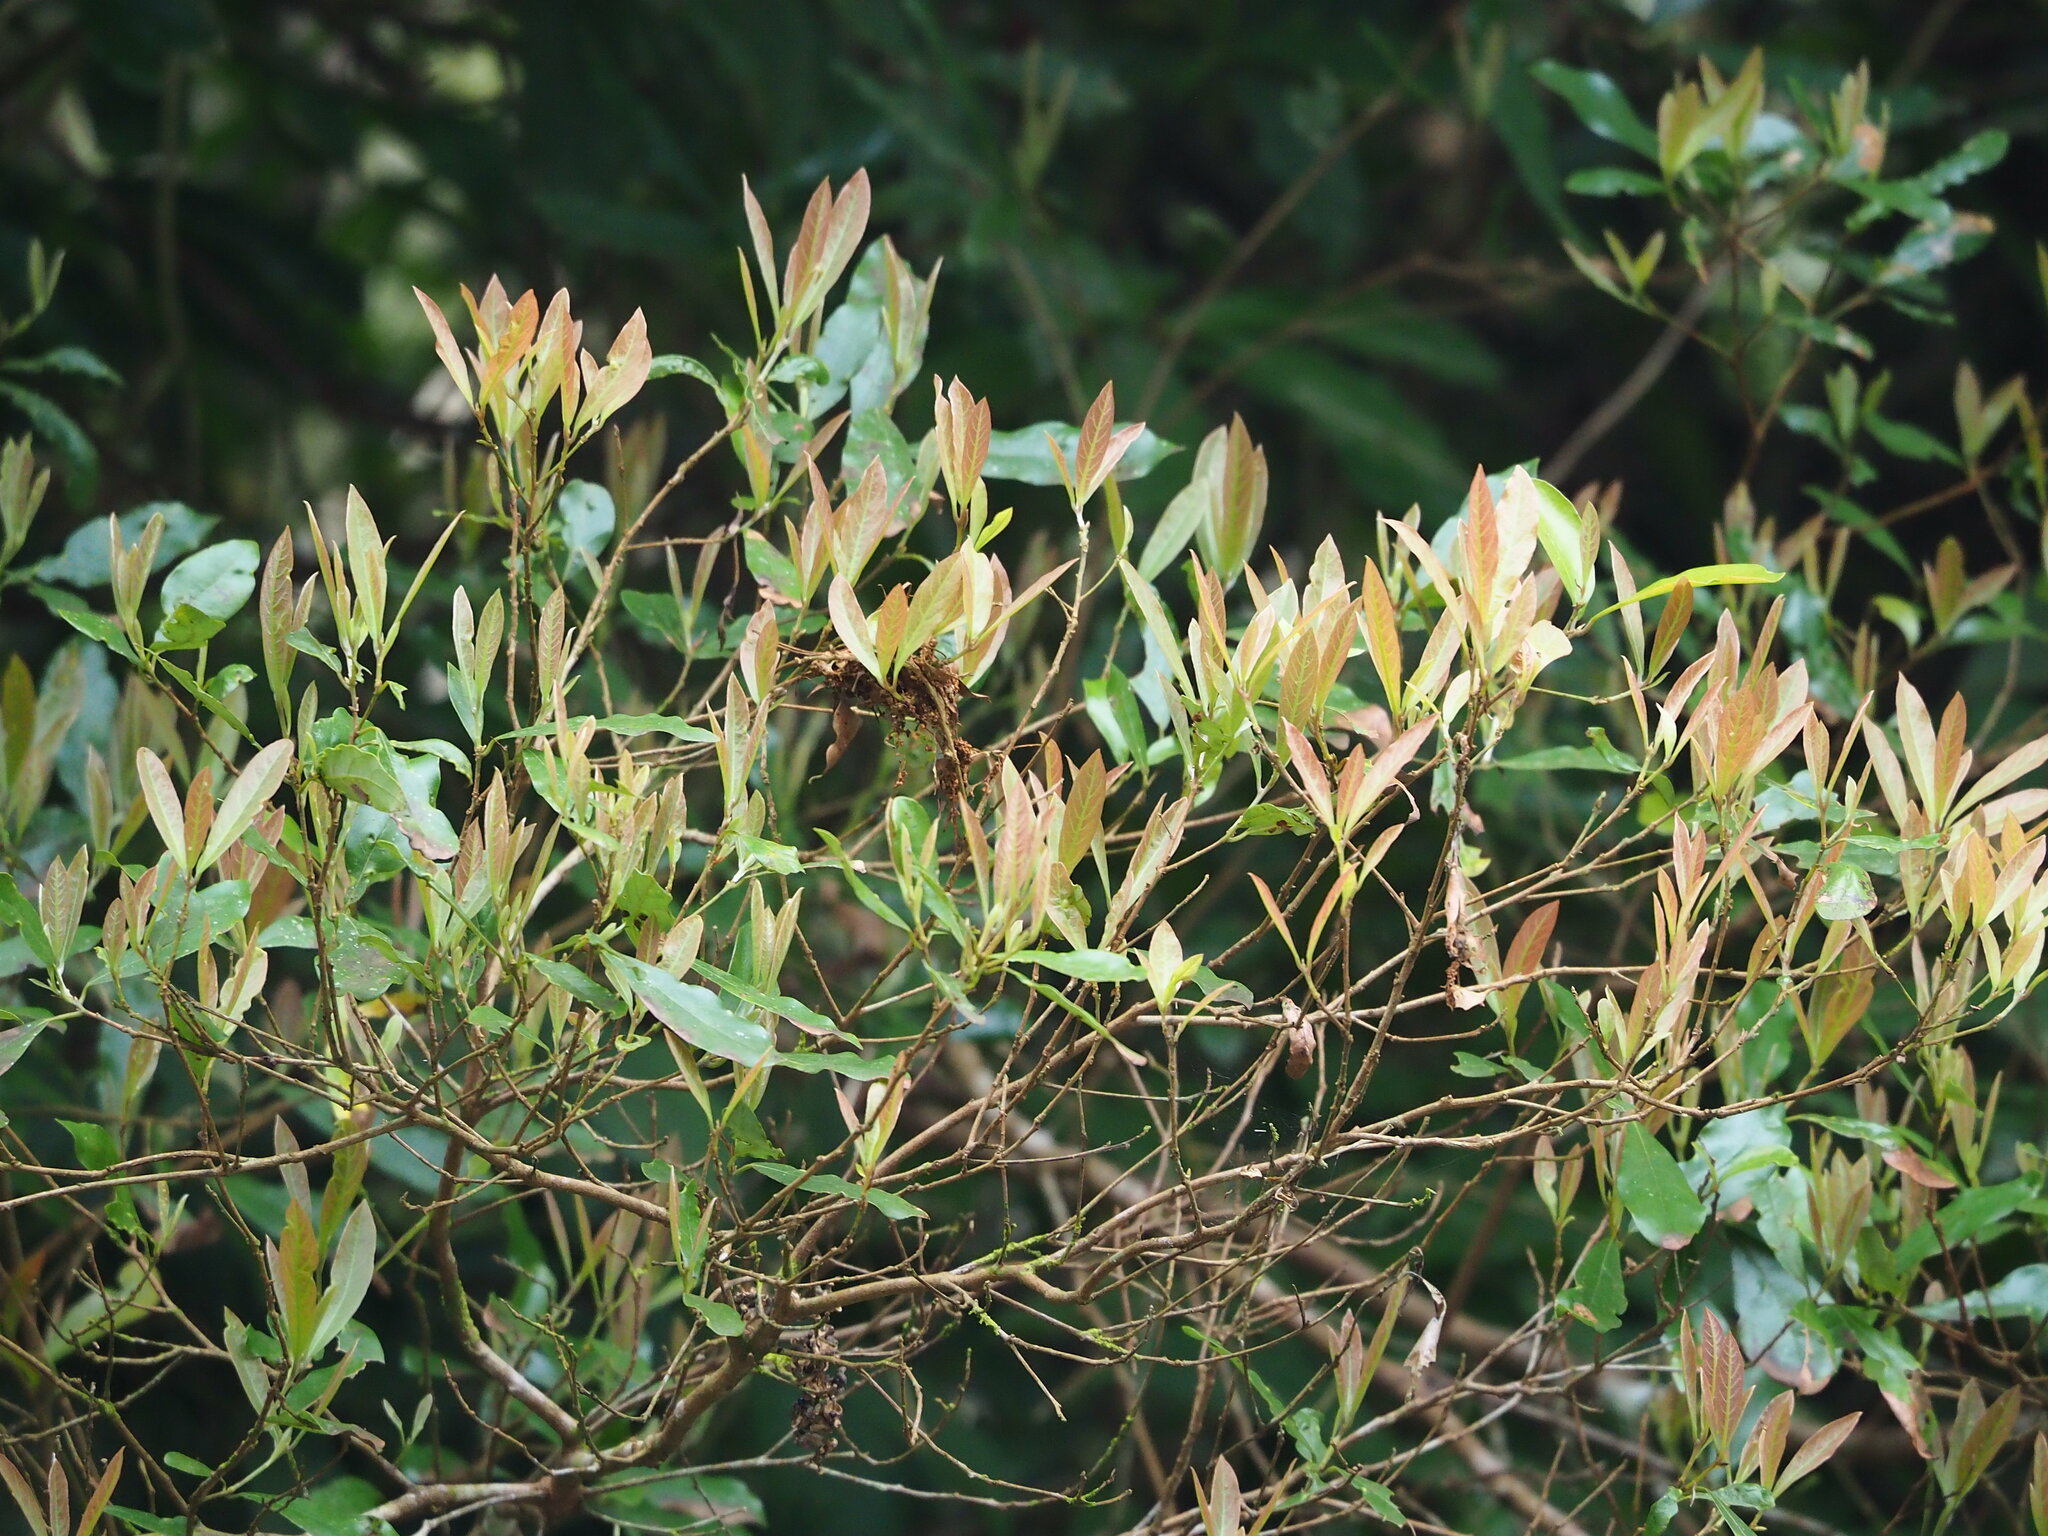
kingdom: Plantae
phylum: Tracheophyta
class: Magnoliopsida
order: Laurales
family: Lauraceae
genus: Litsea
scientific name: Litsea hypophaea
